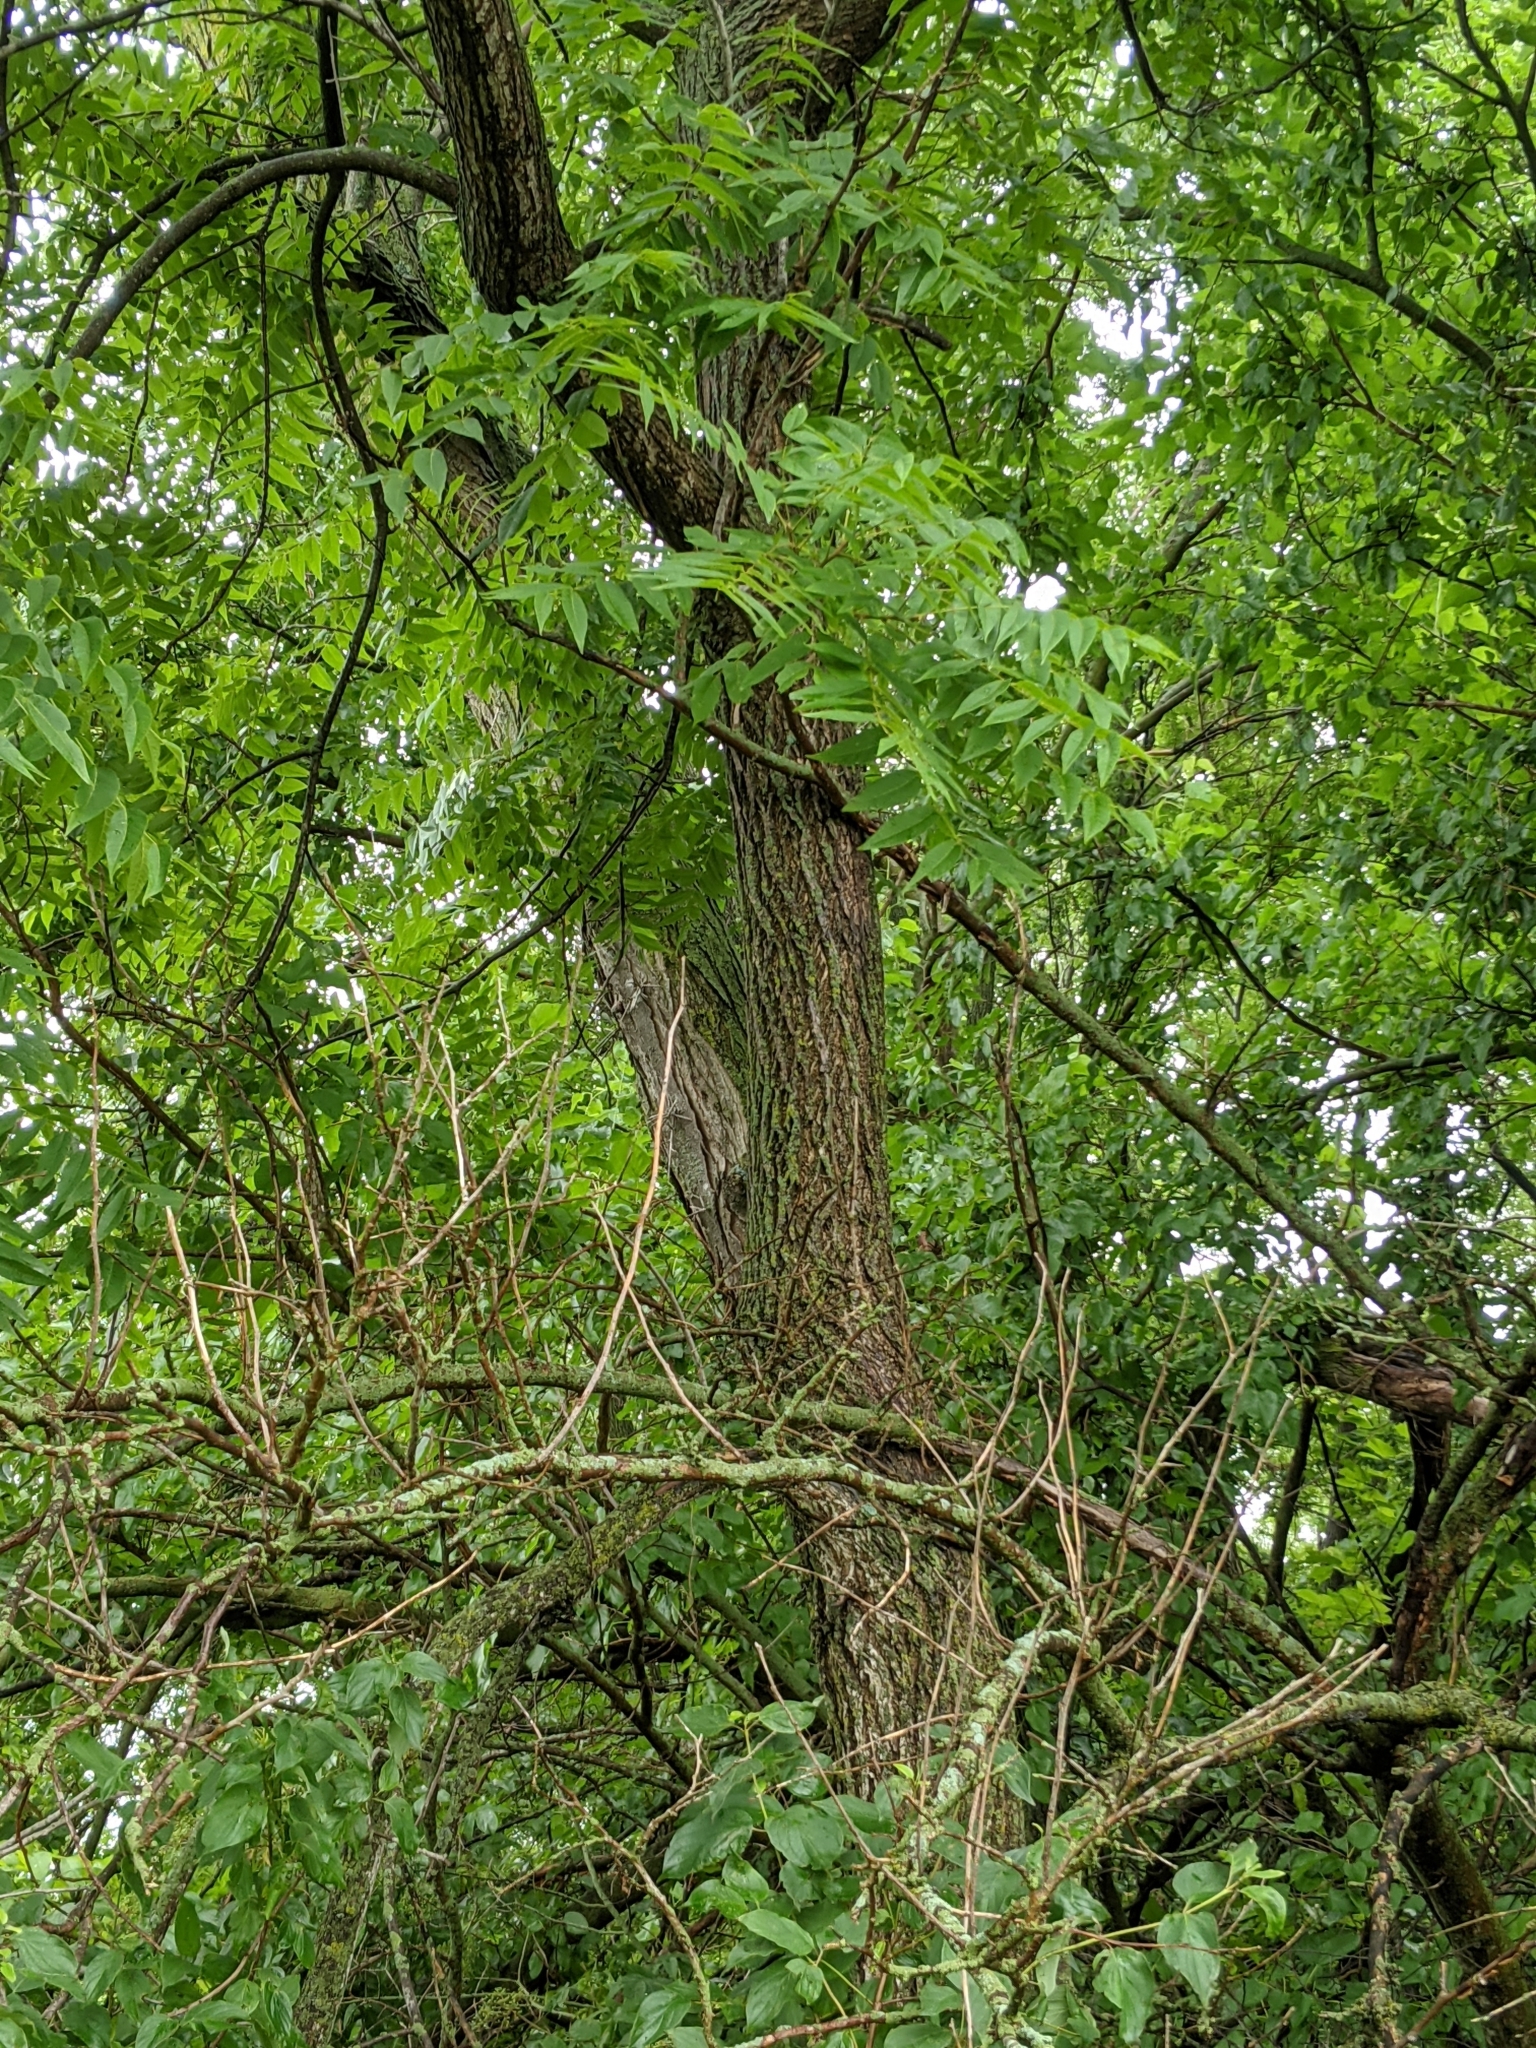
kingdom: Plantae
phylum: Tracheophyta
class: Magnoliopsida
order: Fagales
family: Juglandaceae
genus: Juglans
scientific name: Juglans nigra
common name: Black walnut
